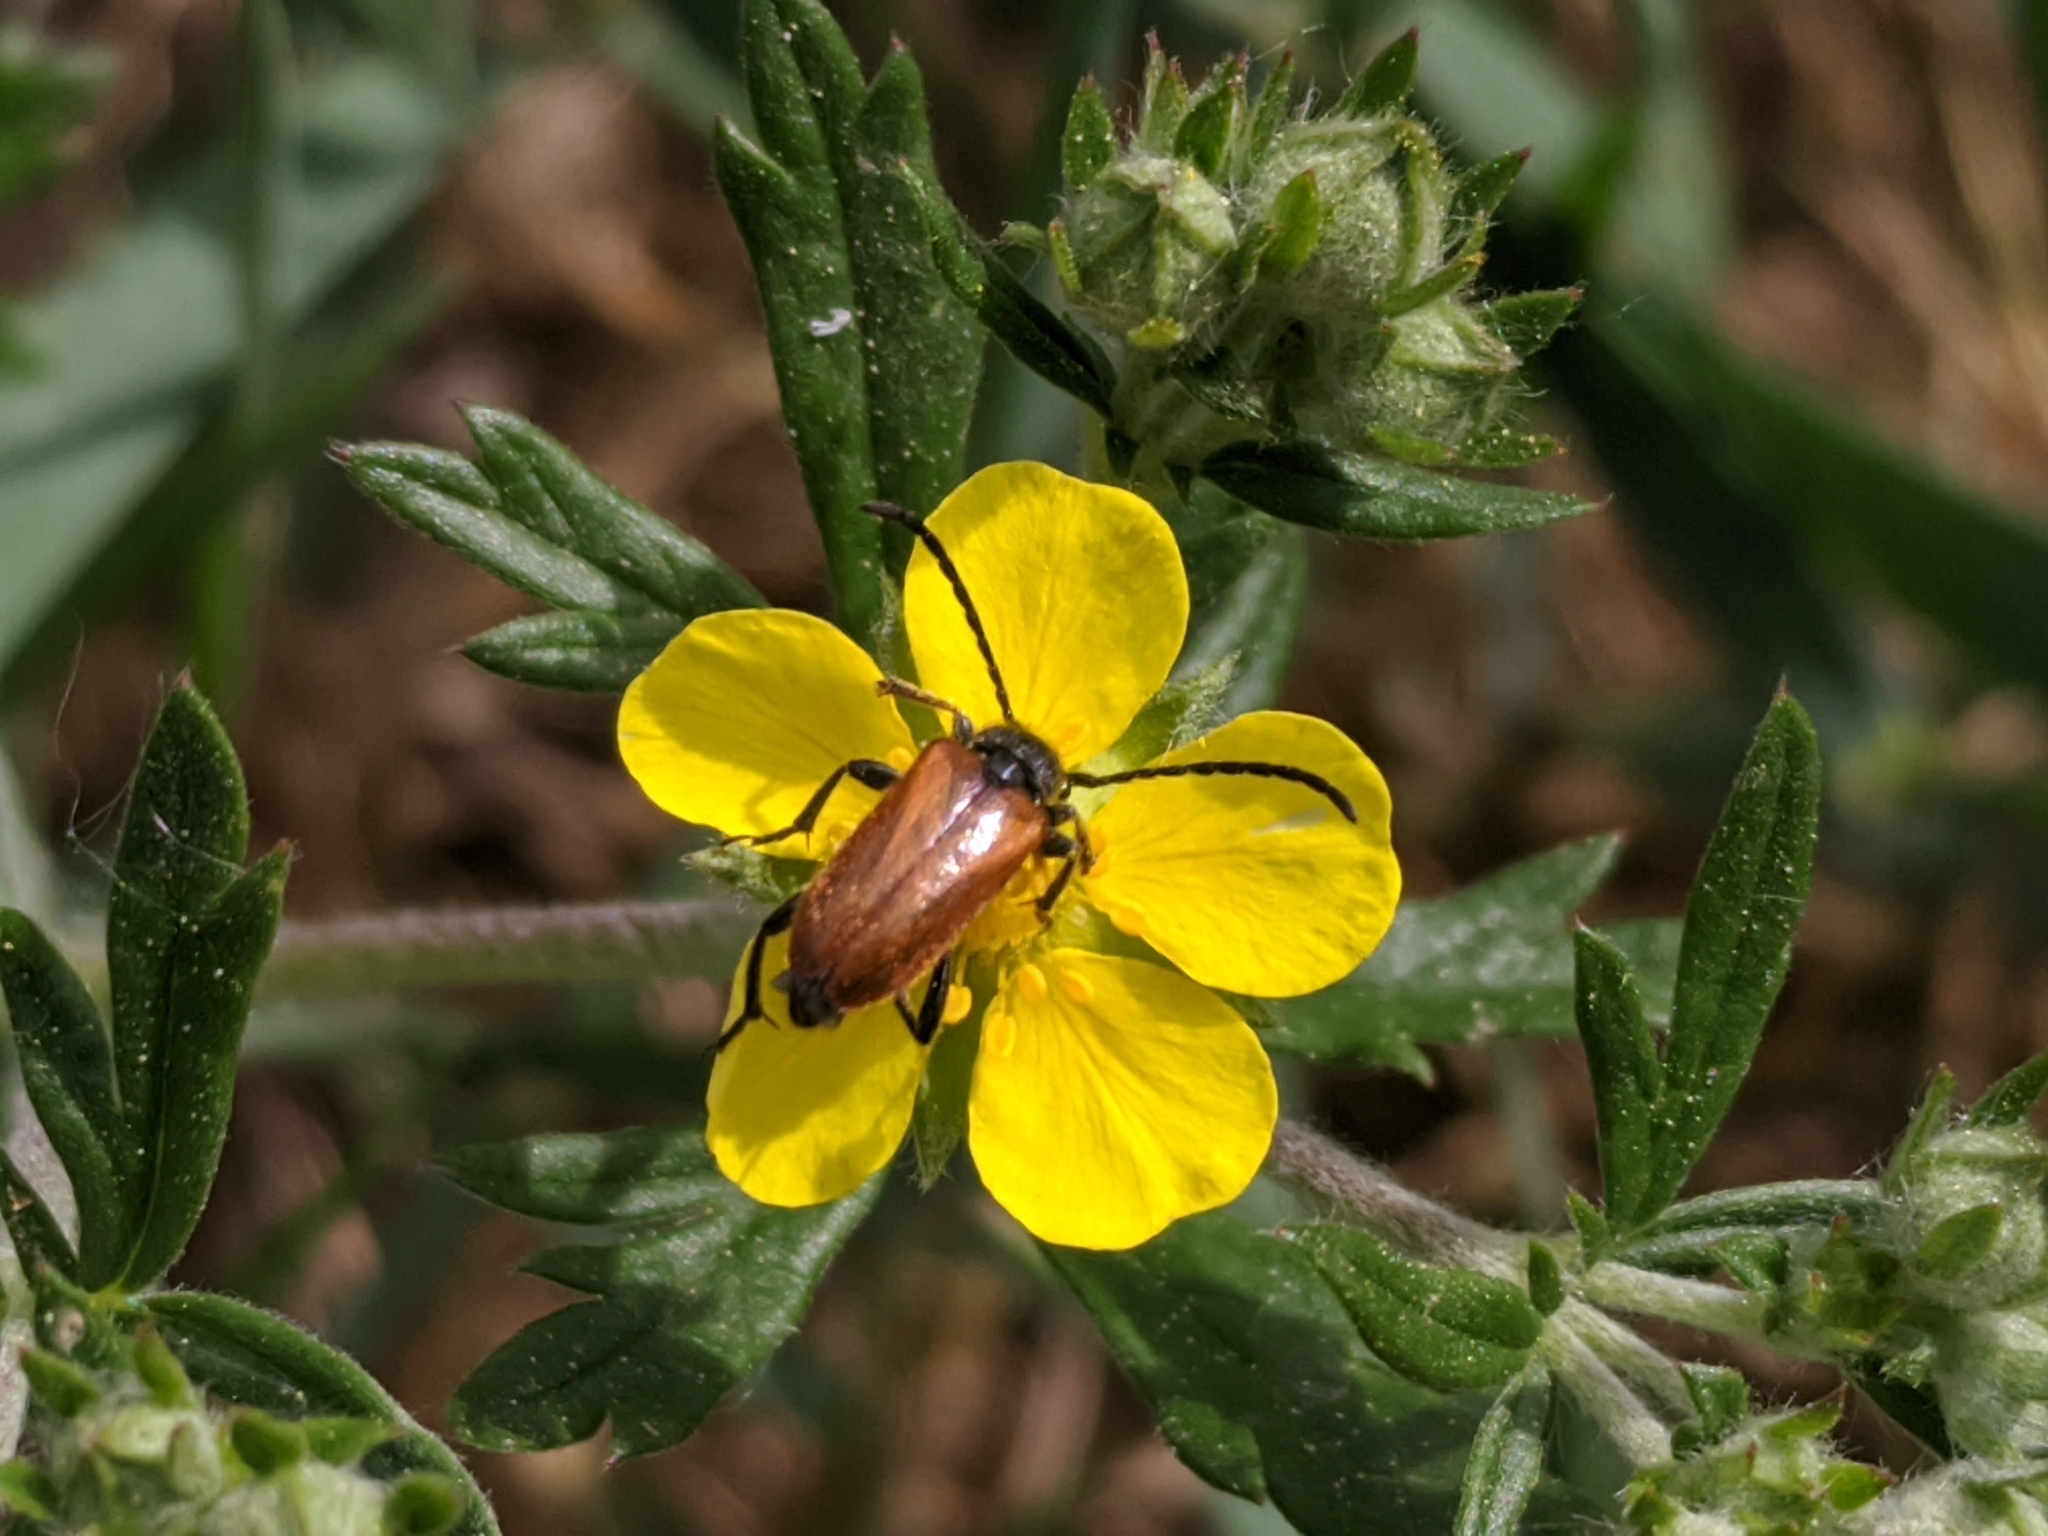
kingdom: Animalia
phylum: Arthropoda
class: Insecta
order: Coleoptera
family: Cerambycidae
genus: Pseudovadonia
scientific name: Pseudovadonia livida
